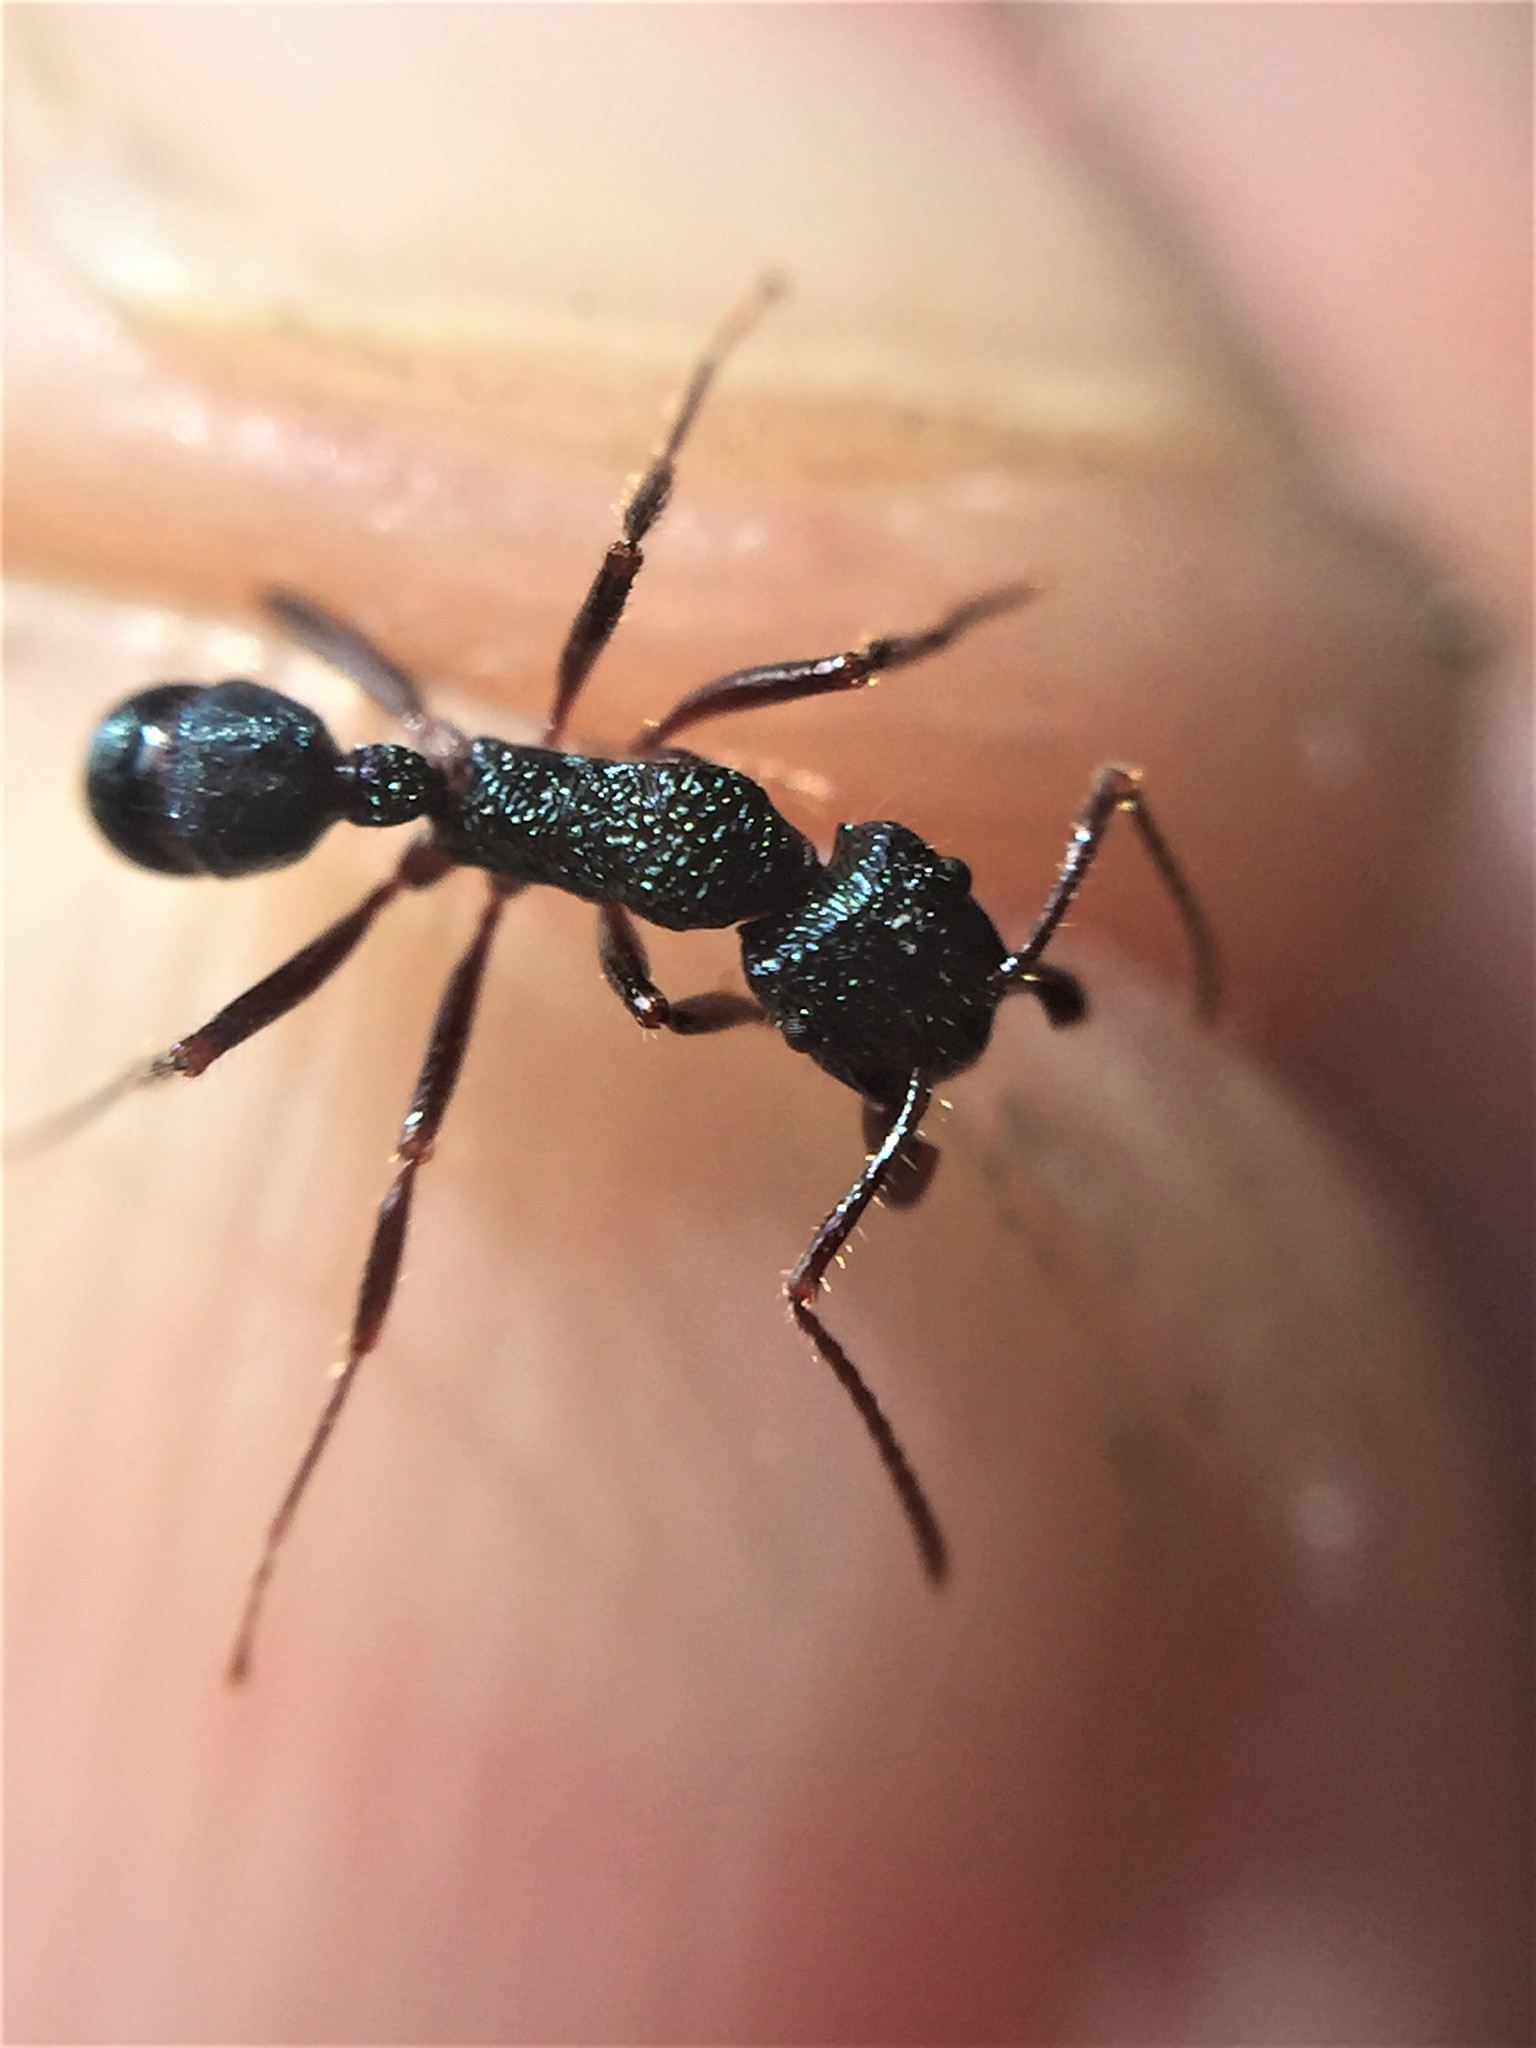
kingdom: Animalia
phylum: Arthropoda
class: Insecta
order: Hymenoptera
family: Formicidae
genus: Rhytidoponera
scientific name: Rhytidoponera chalybaea
